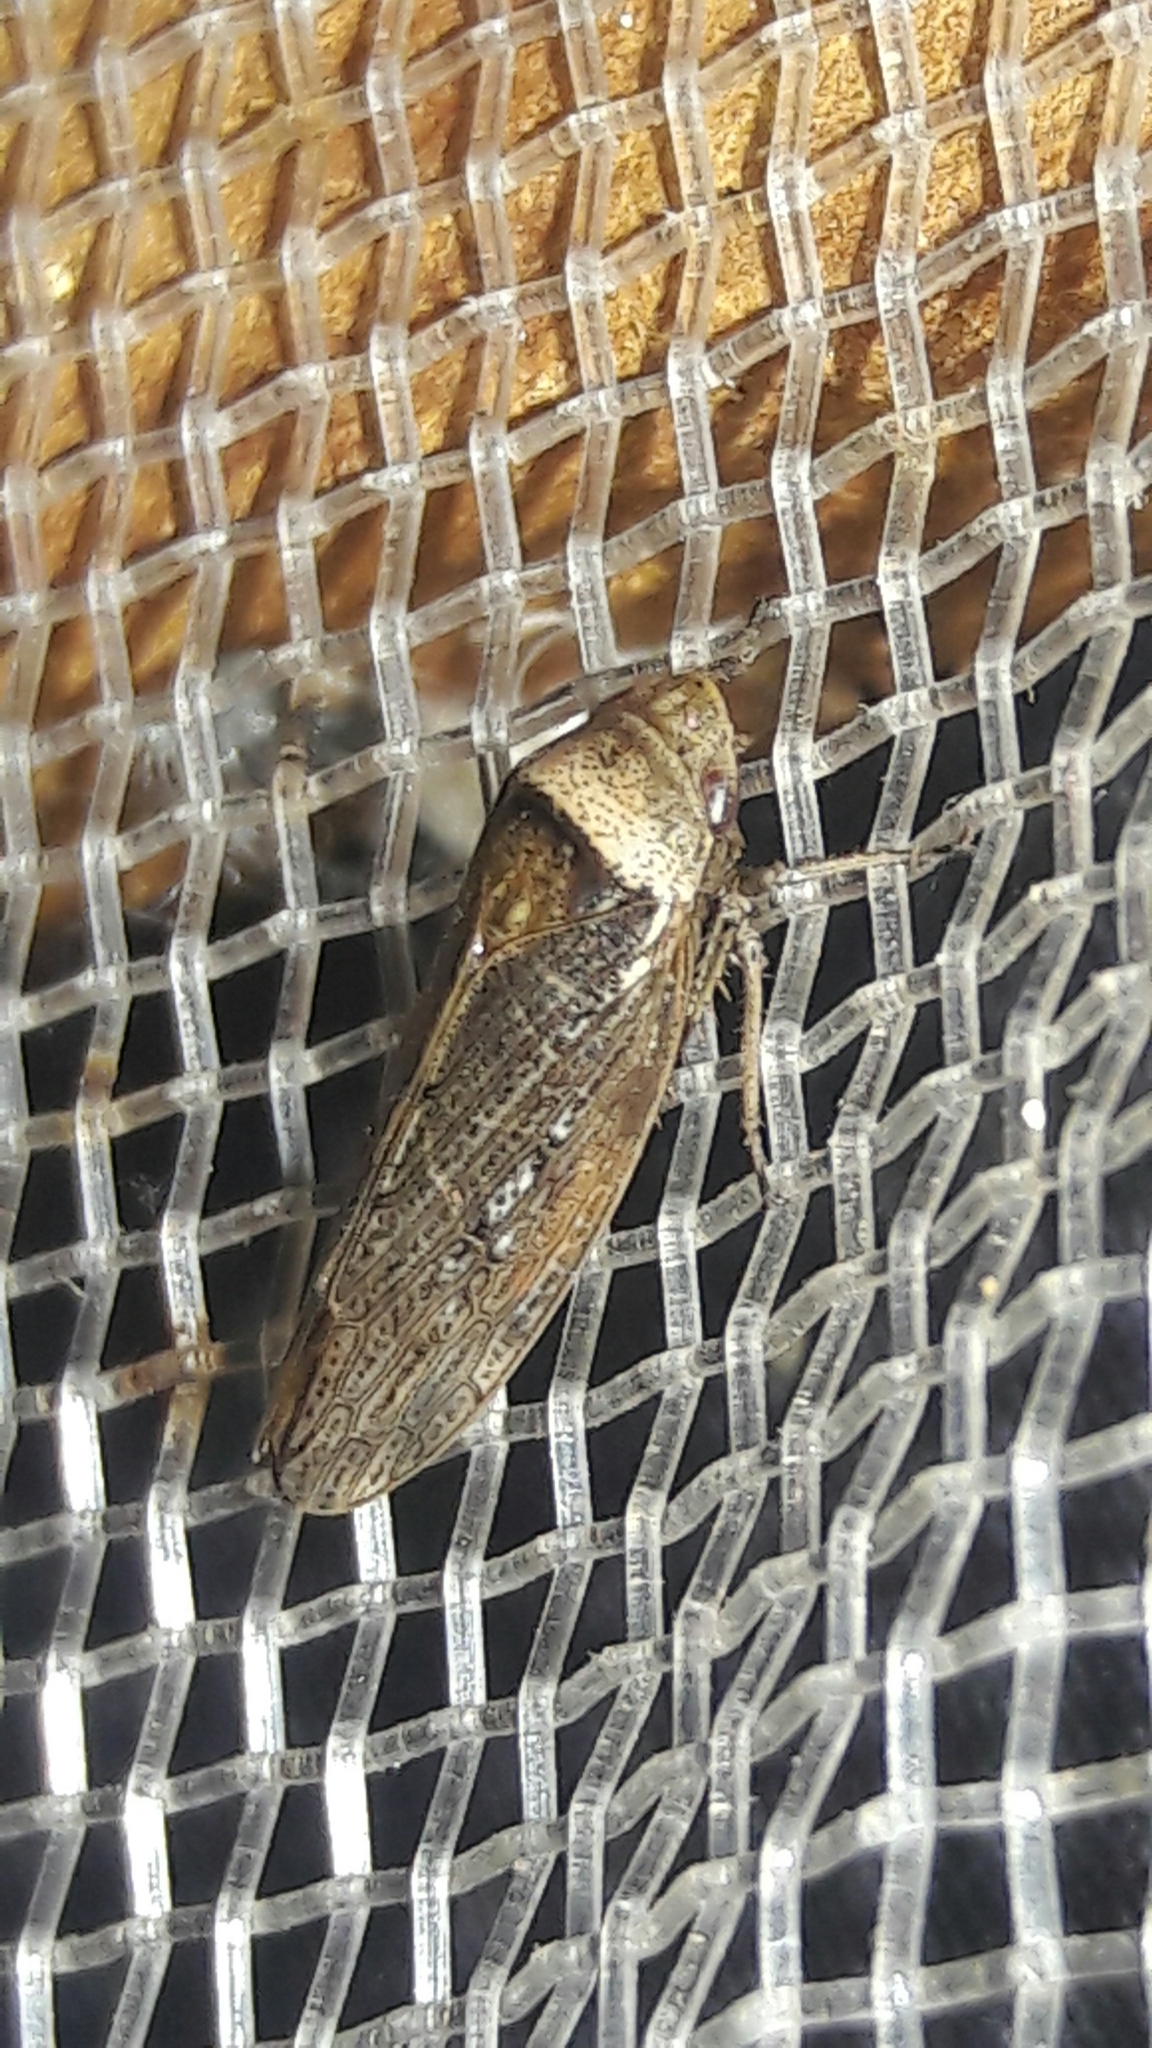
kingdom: Animalia
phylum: Arthropoda
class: Insecta
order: Hemiptera
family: Cicadellidae
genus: Sordana
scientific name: Sordana sordida
